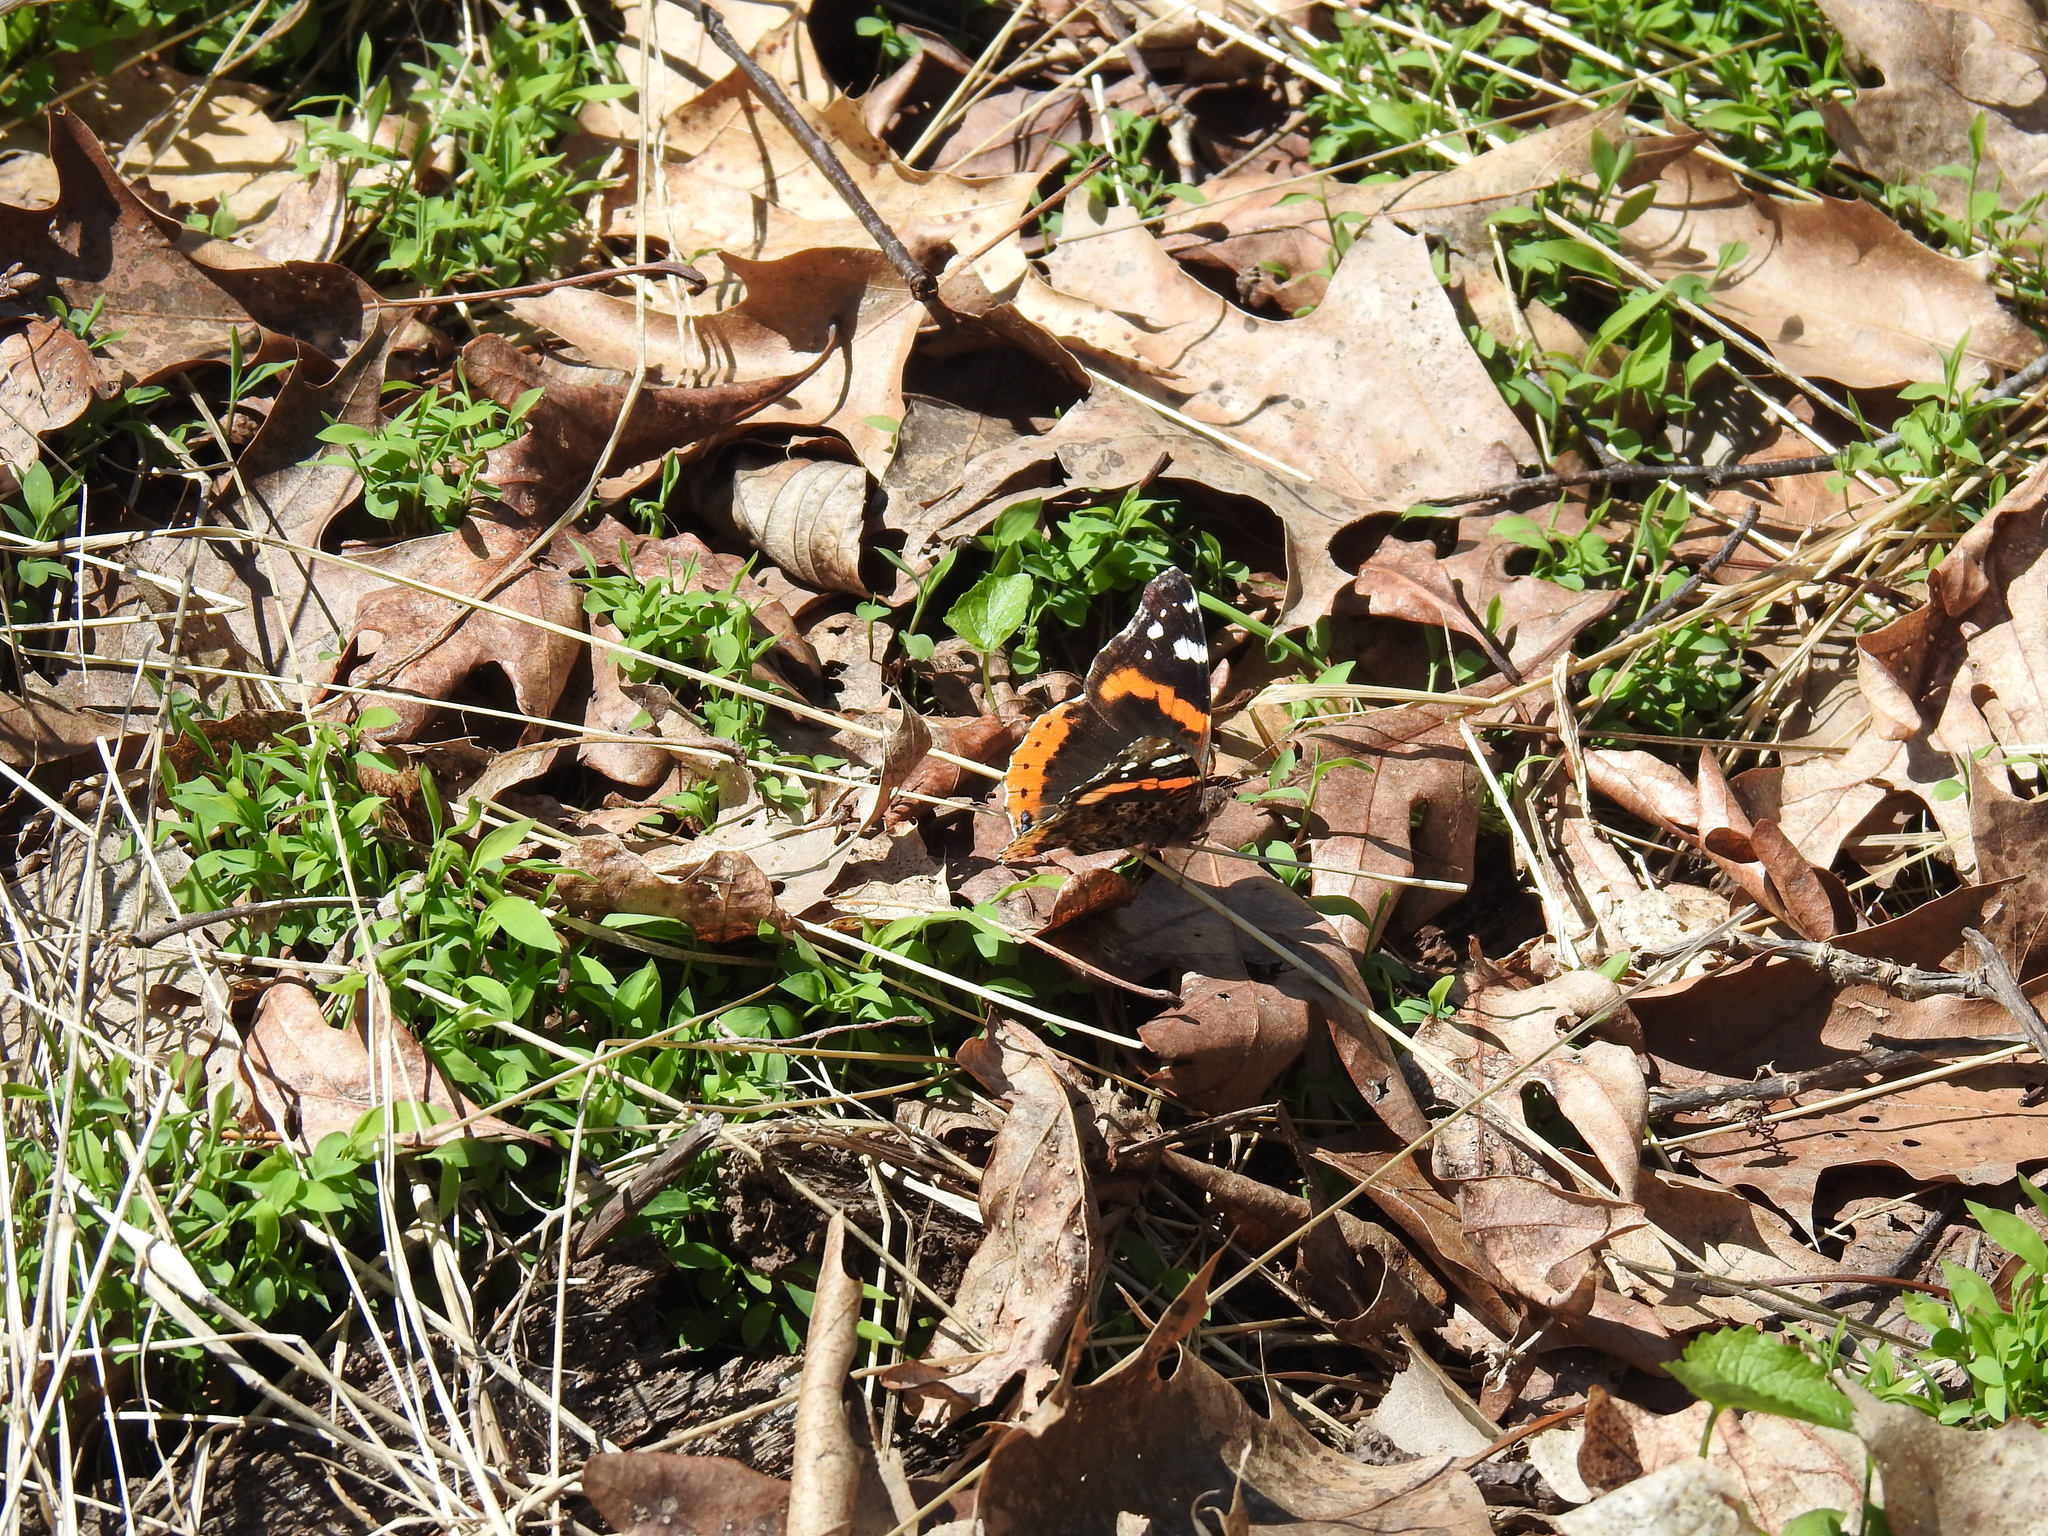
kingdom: Animalia
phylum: Arthropoda
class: Insecta
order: Lepidoptera
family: Nymphalidae
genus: Vanessa
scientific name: Vanessa atalanta
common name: Red admiral
